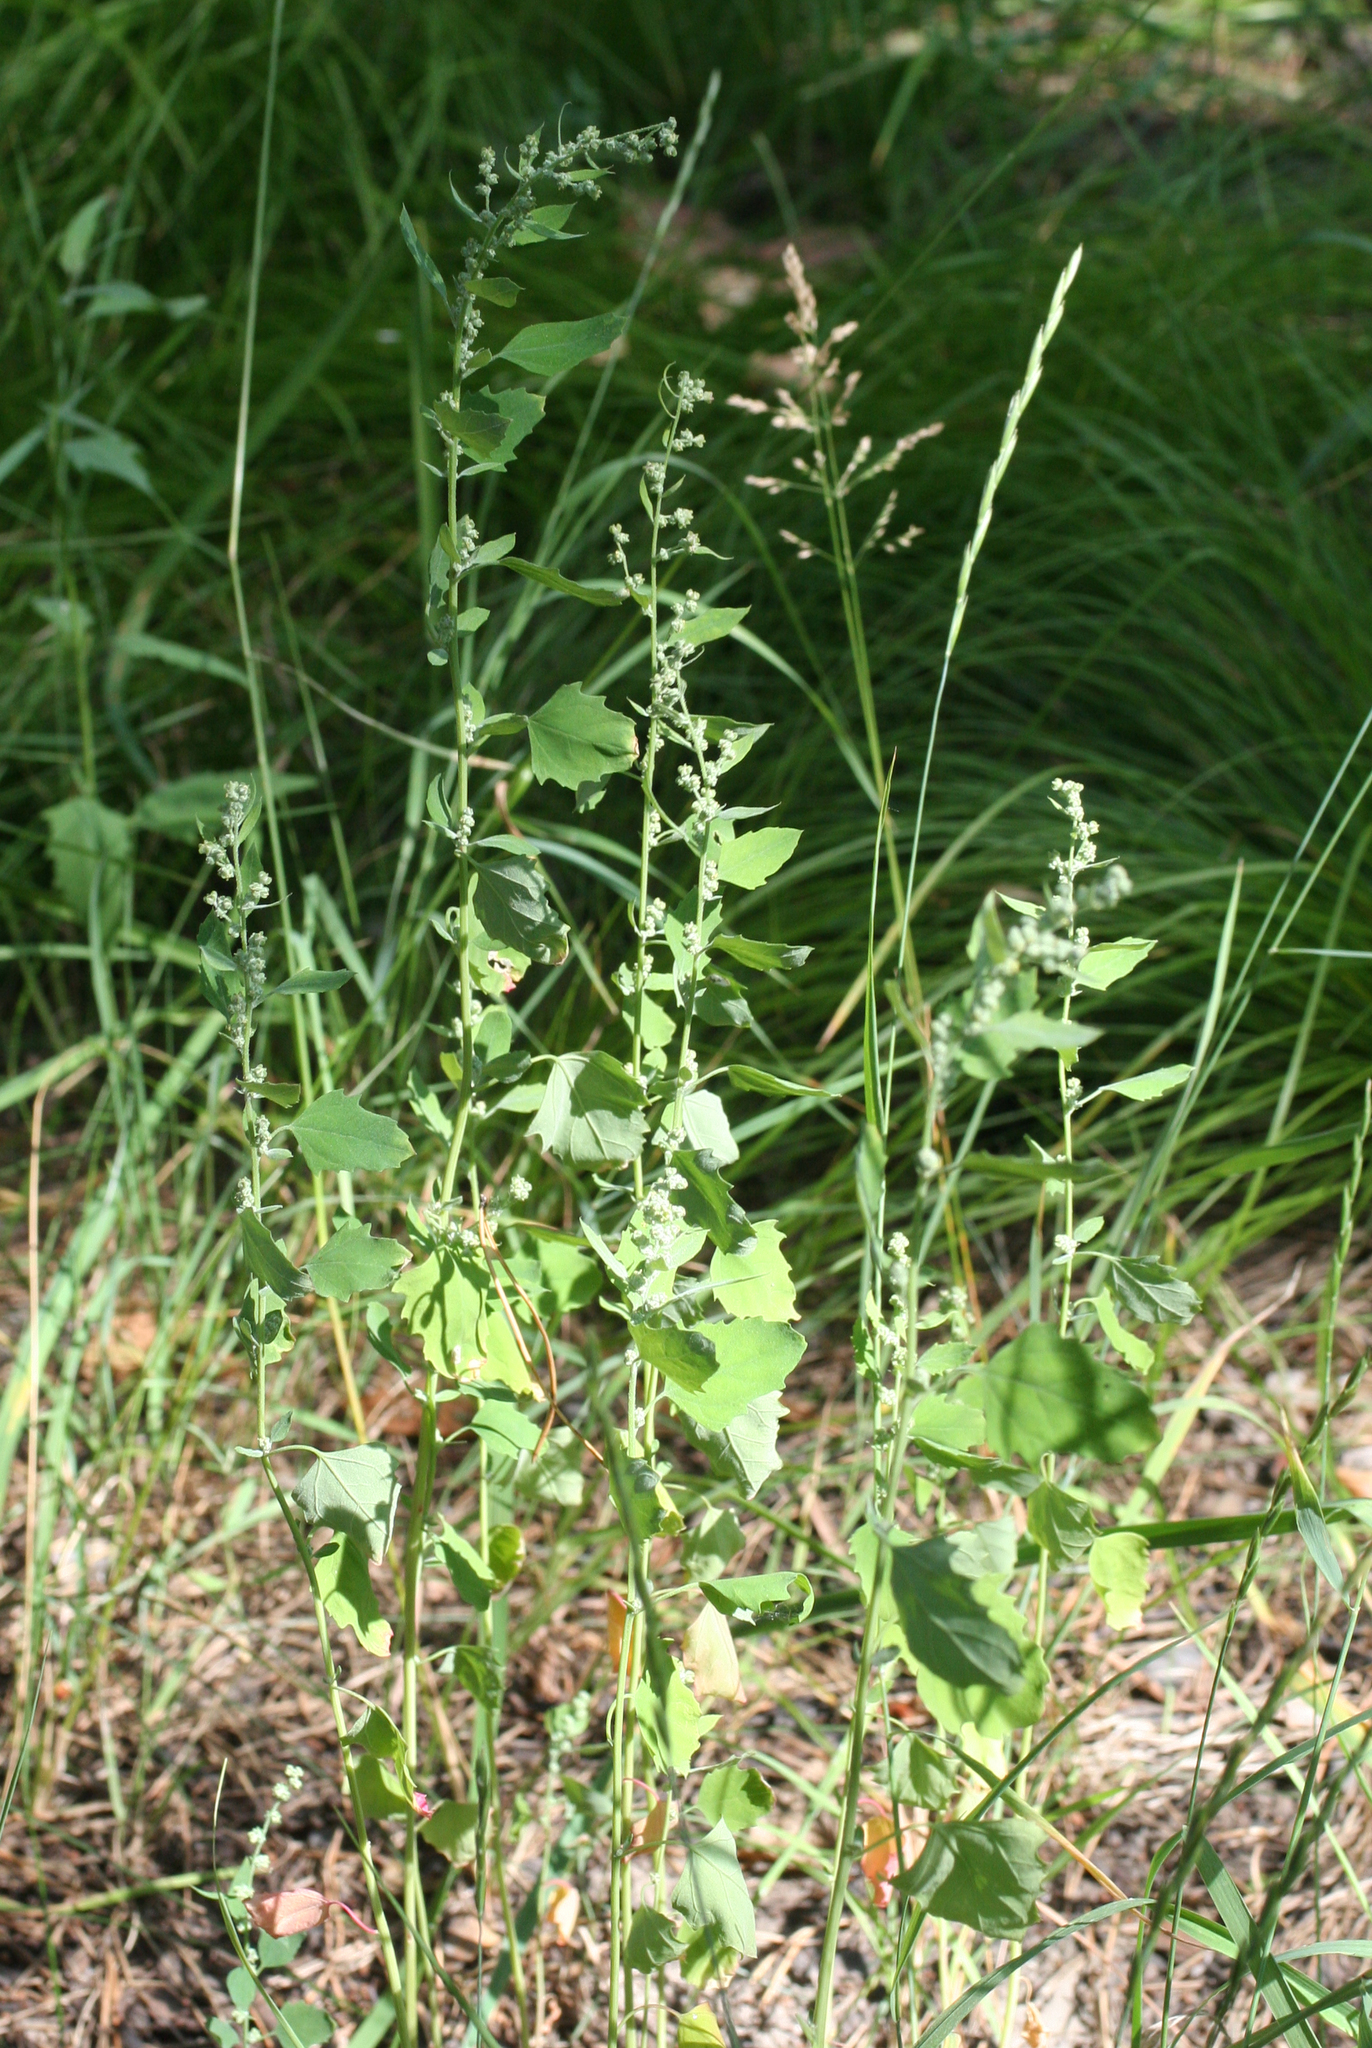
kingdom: Plantae
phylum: Tracheophyta
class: Magnoliopsida
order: Caryophyllales
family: Amaranthaceae
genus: Chenopodium
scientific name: Chenopodium album
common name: Fat-hen
